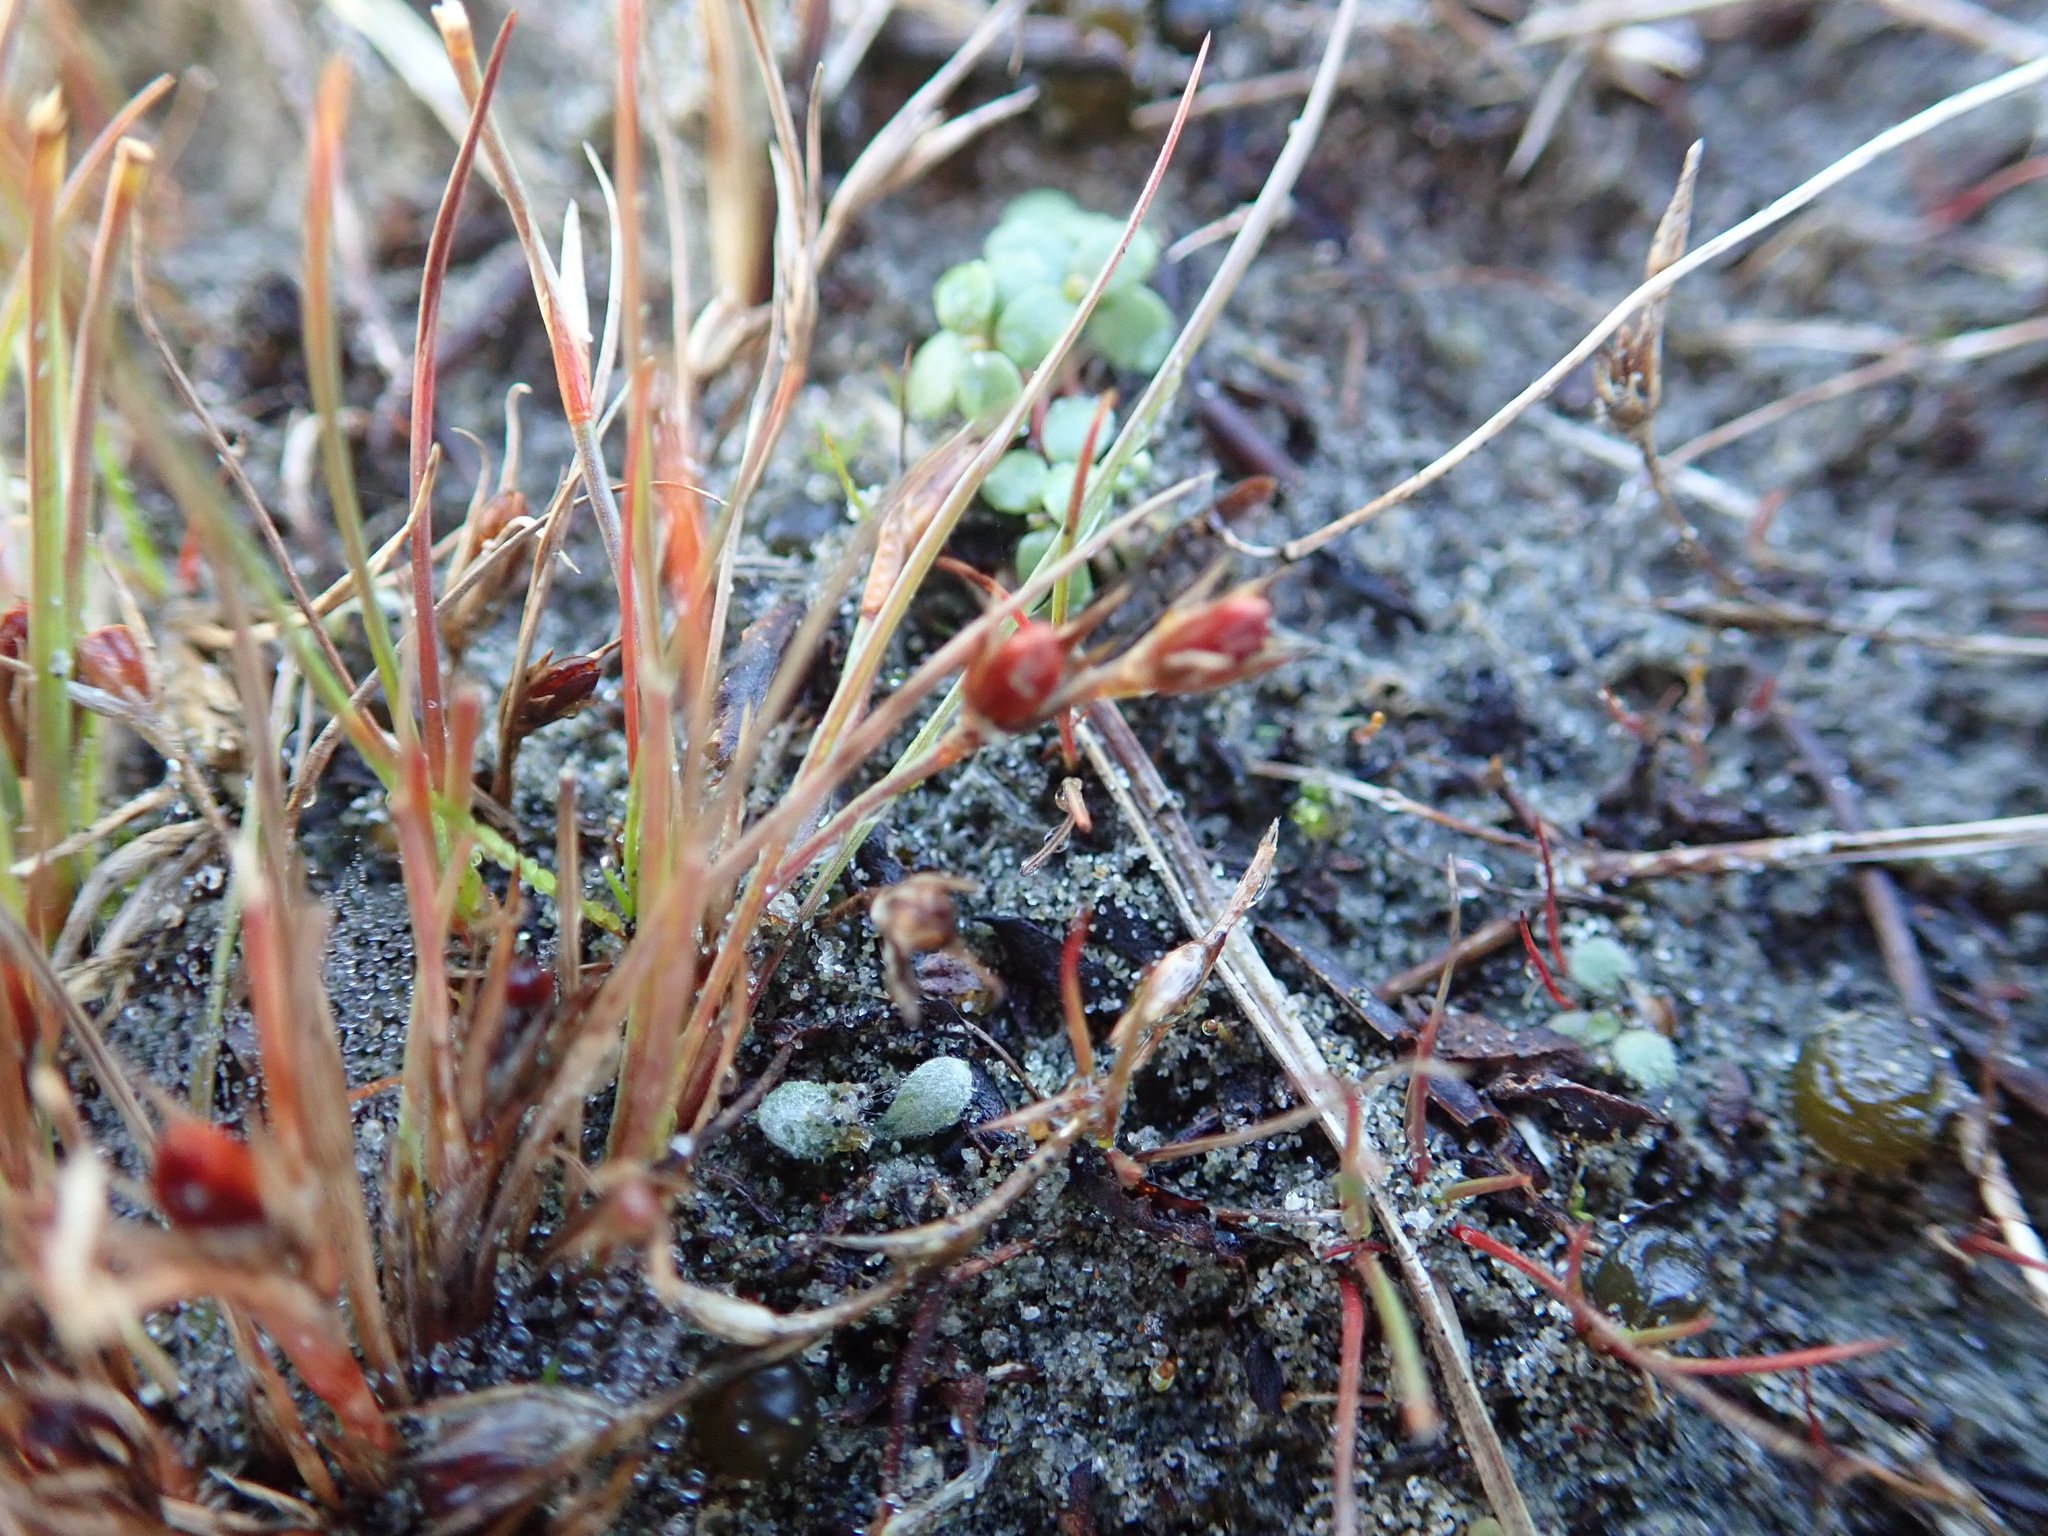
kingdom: Plantae
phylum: Tracheophyta
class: Liliopsida
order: Poales
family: Juncaceae
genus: Juncus
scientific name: Juncus bufonius
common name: Toad rush
